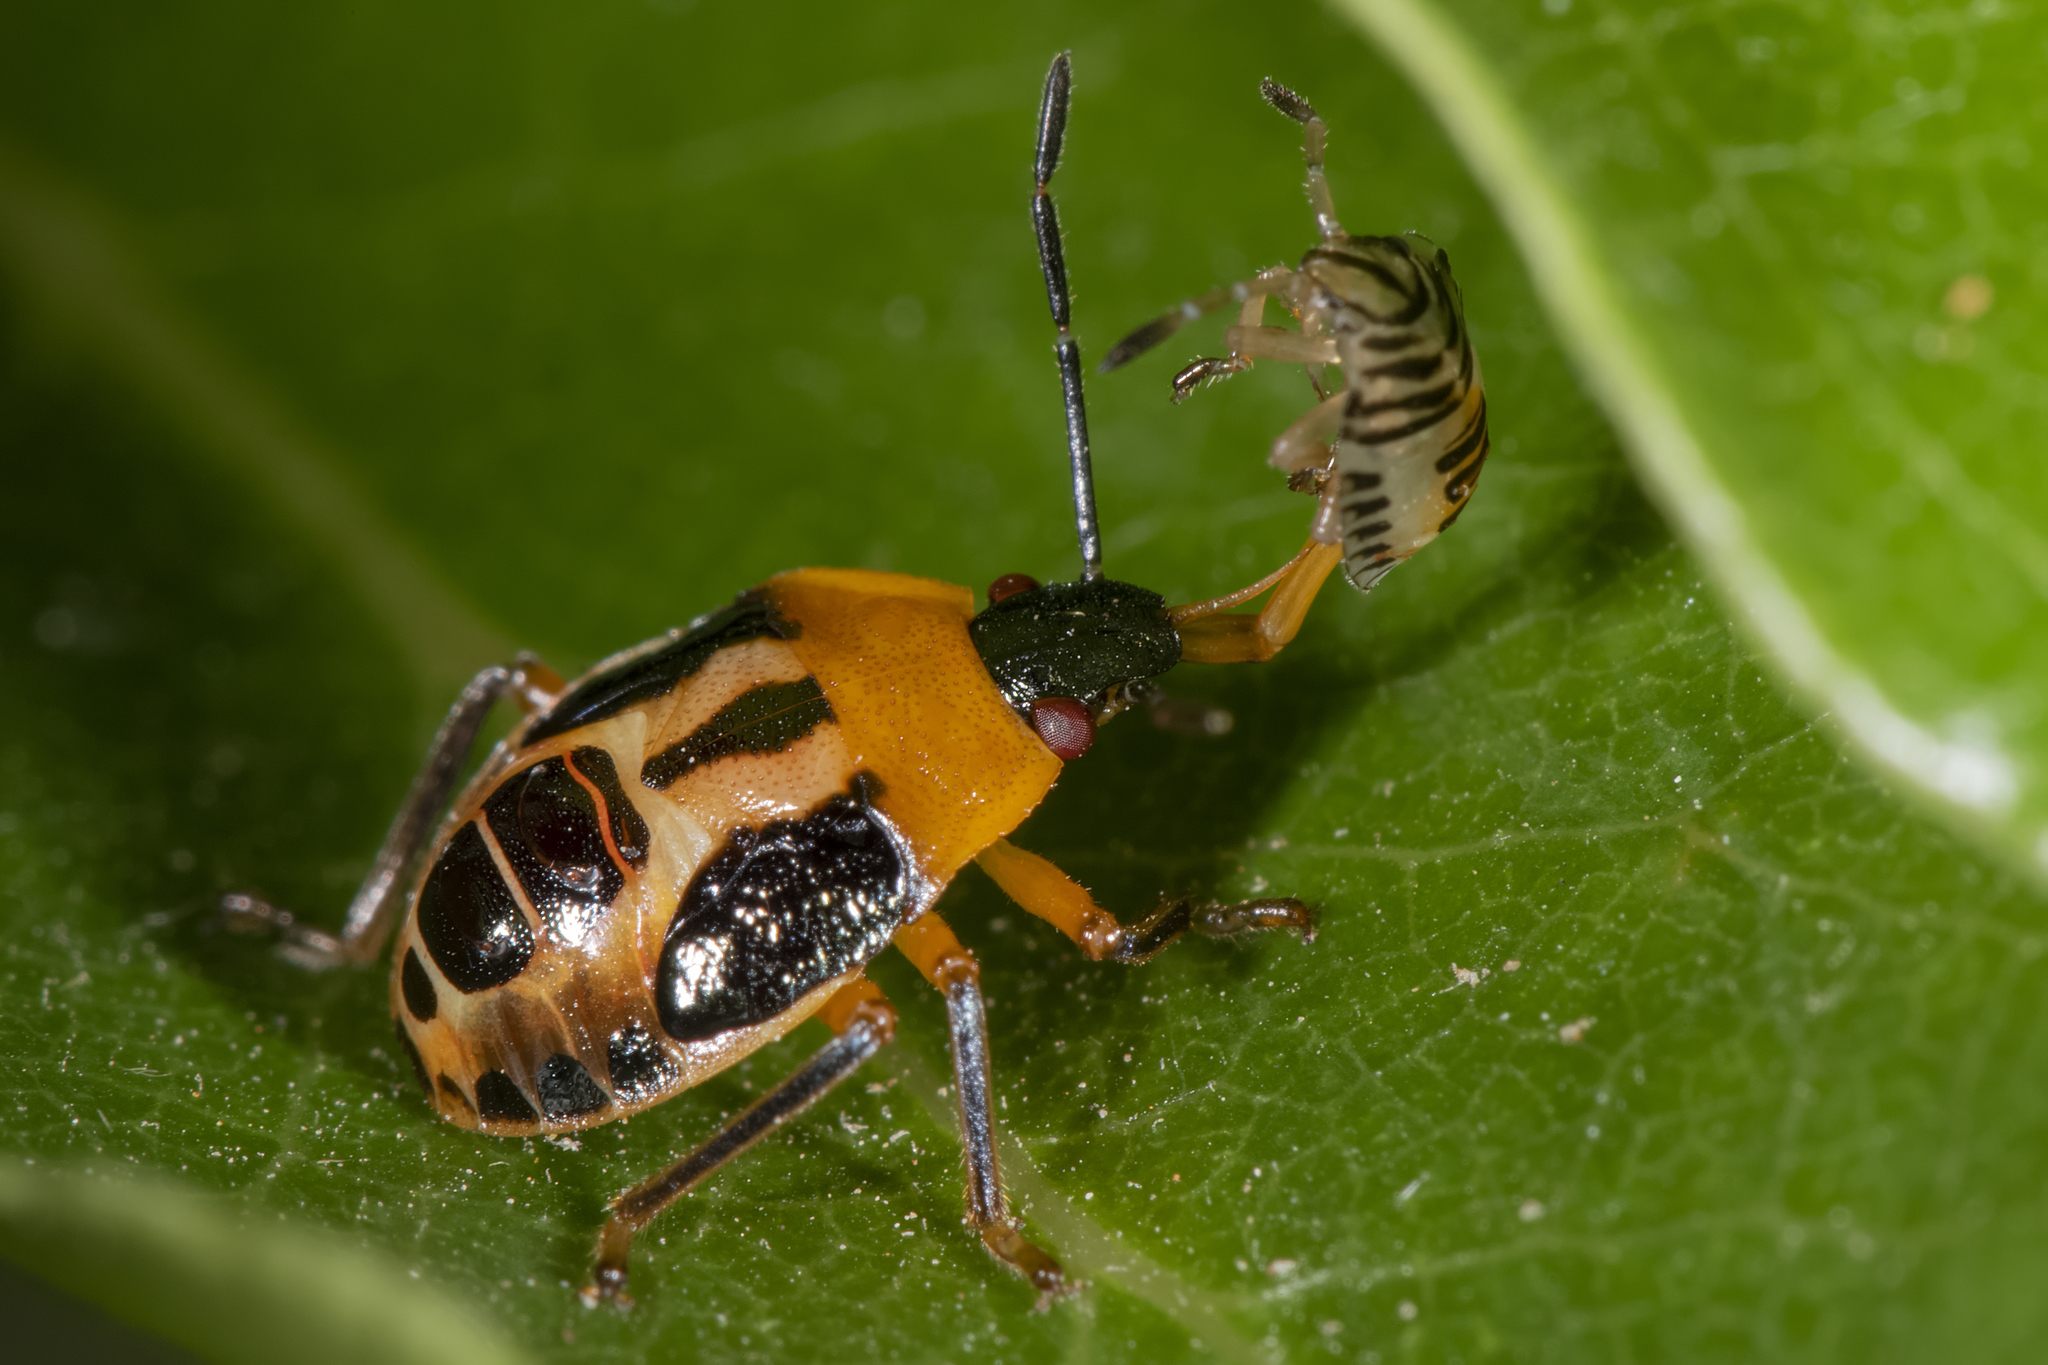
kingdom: Animalia
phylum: Arthropoda
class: Insecta
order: Hemiptera
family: Pentatomidae
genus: Supputius
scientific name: Supputius
